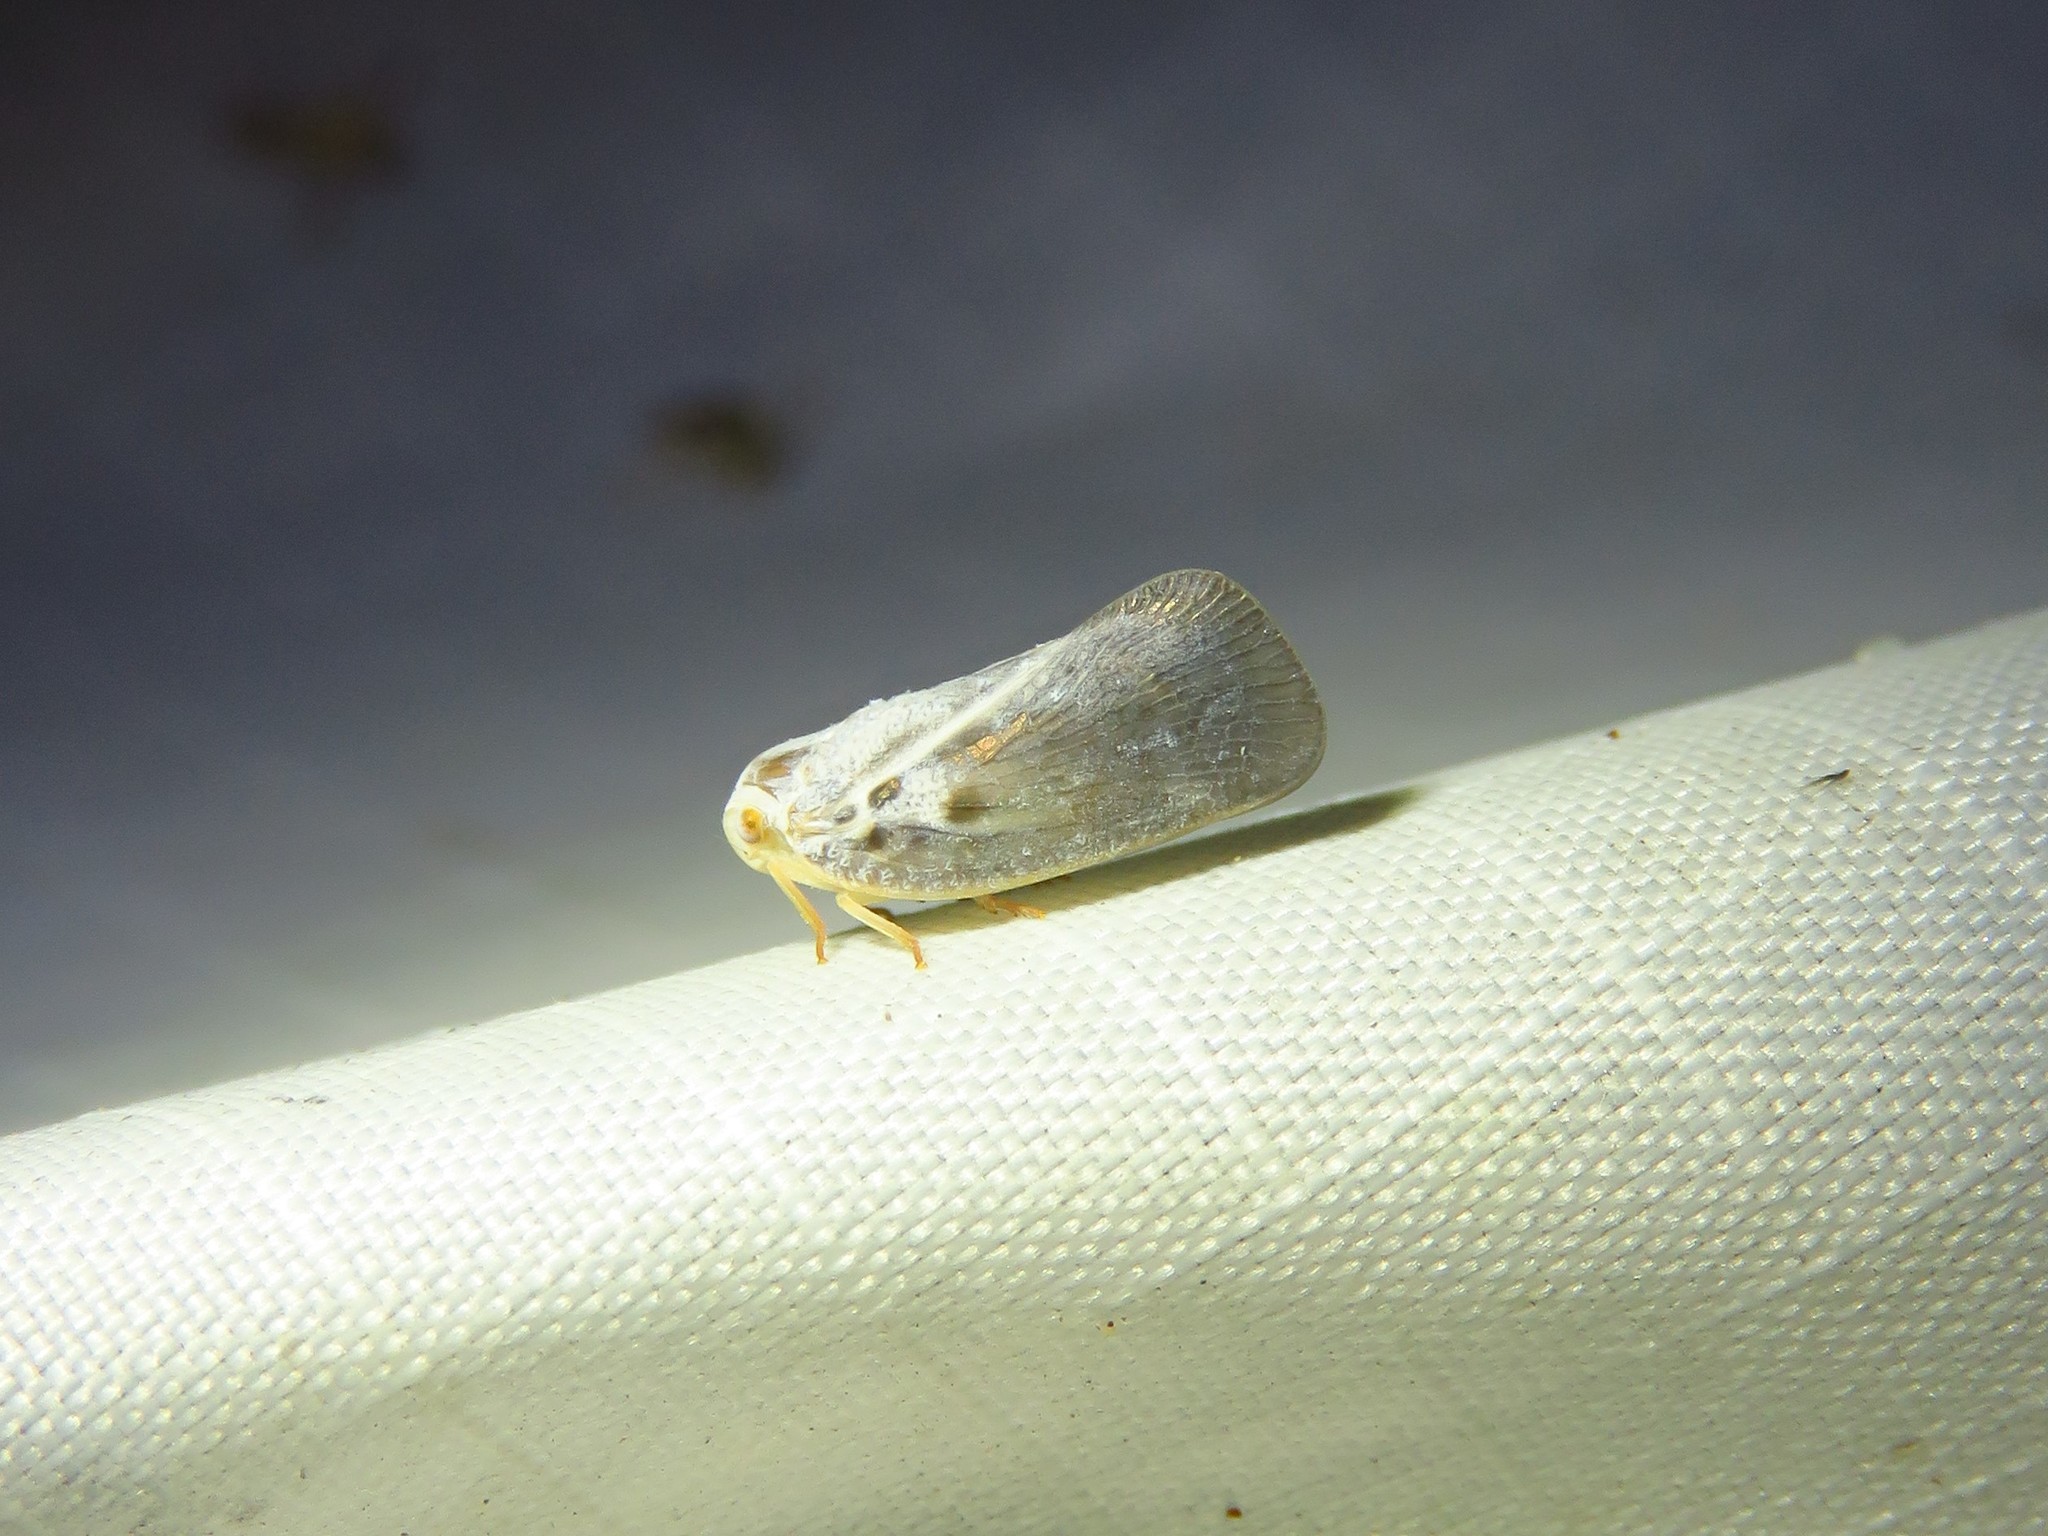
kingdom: Animalia
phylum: Arthropoda
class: Insecta
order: Hemiptera
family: Flatidae
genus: Metcalfa
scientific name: Metcalfa pruinosa
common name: Citrus flatid planthopper
